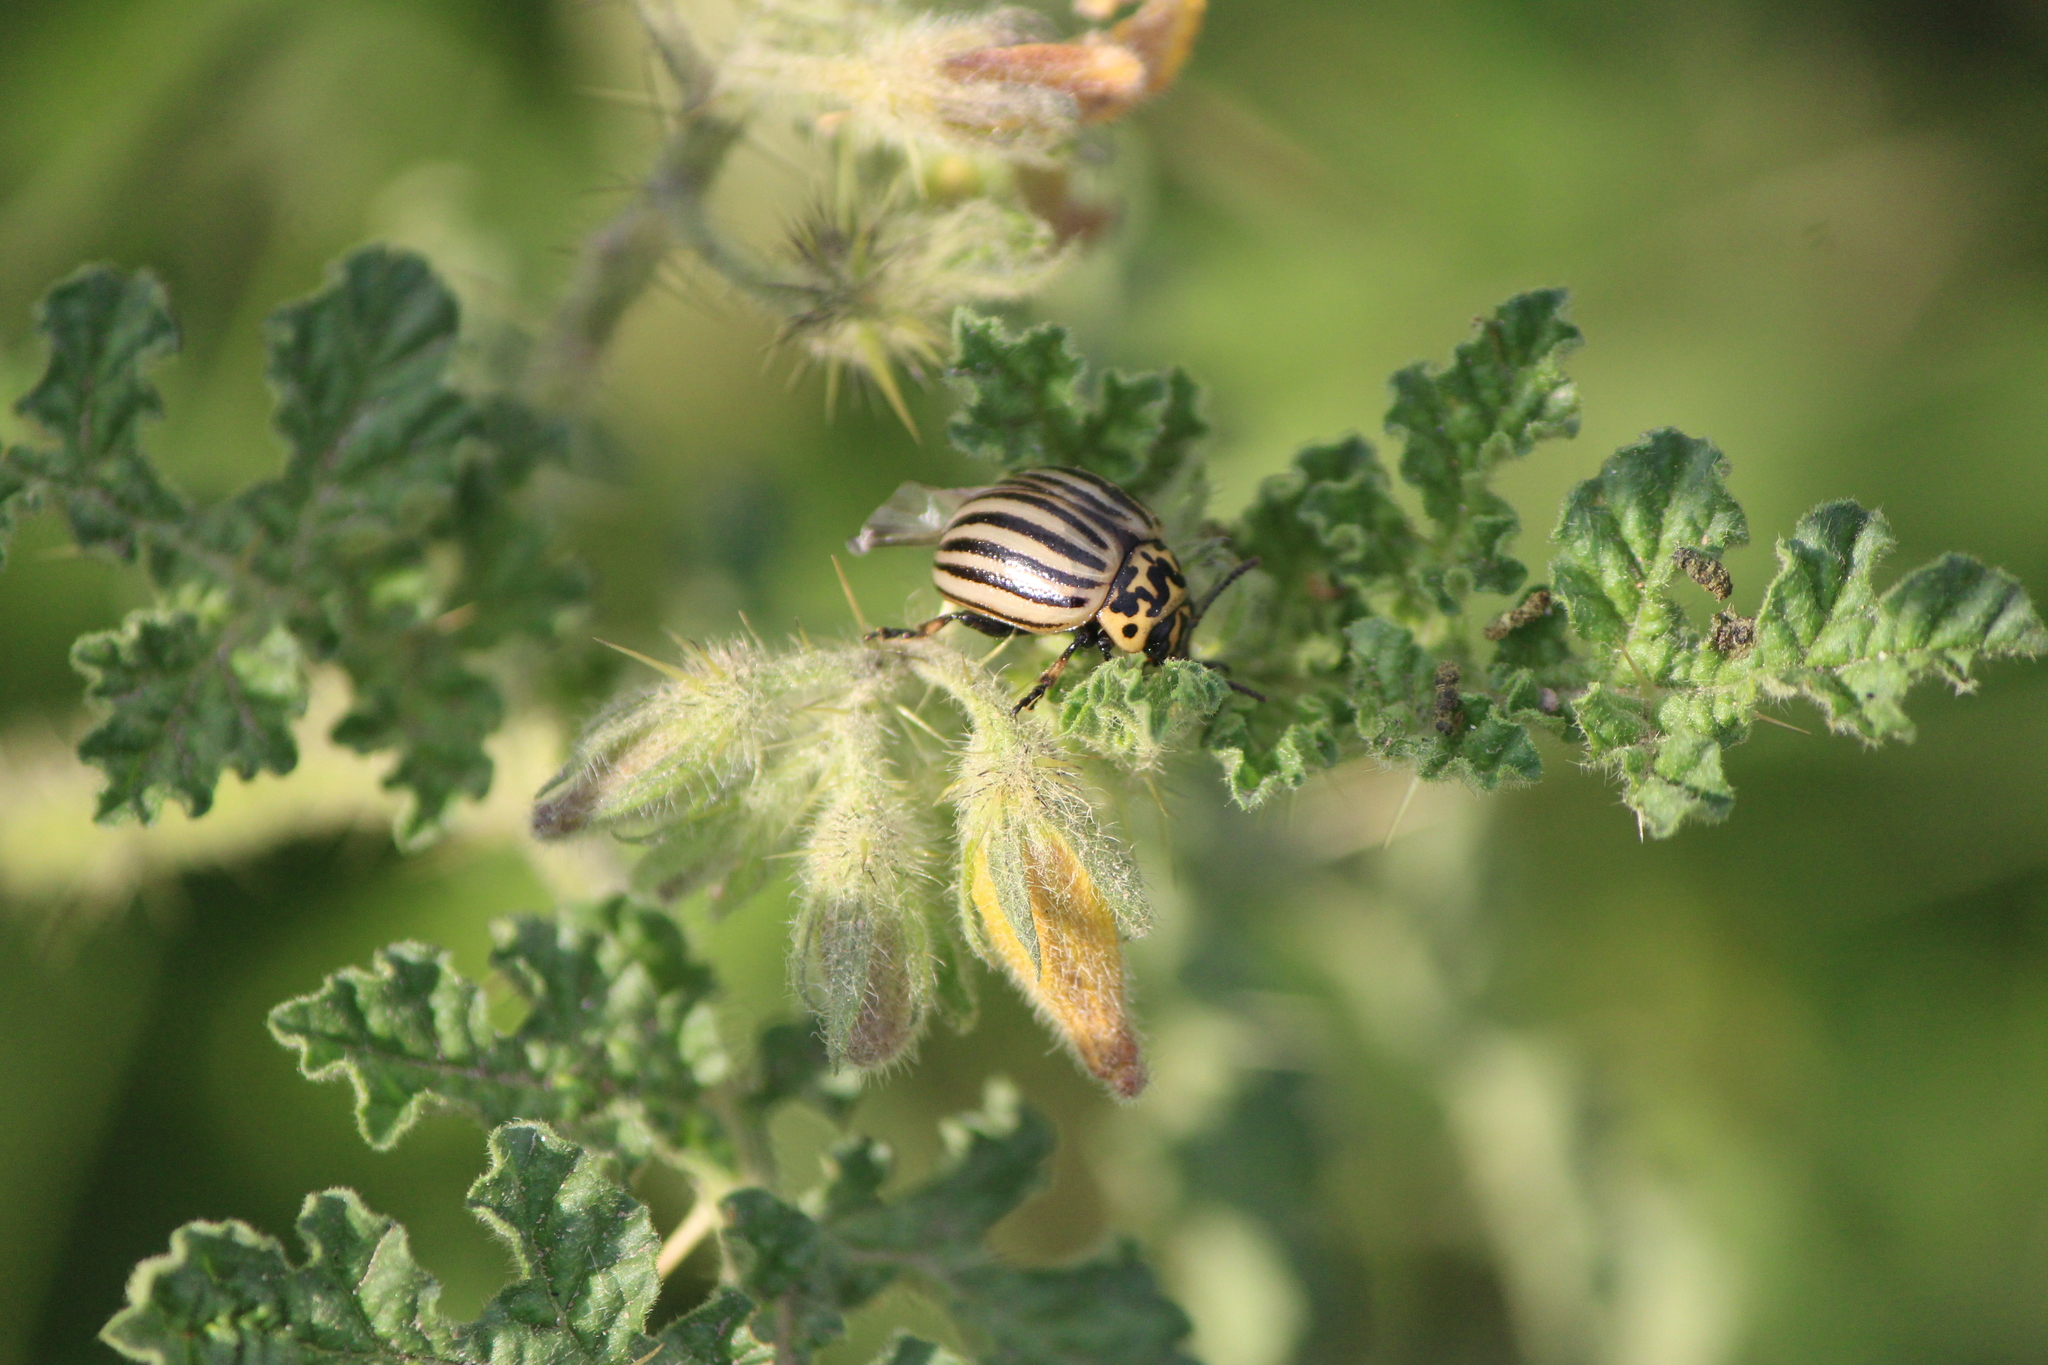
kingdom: Animalia
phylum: Arthropoda
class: Insecta
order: Coleoptera
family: Chrysomelidae
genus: Leptinotarsa
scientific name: Leptinotarsa decemlineata
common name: Colorado potato beetle
